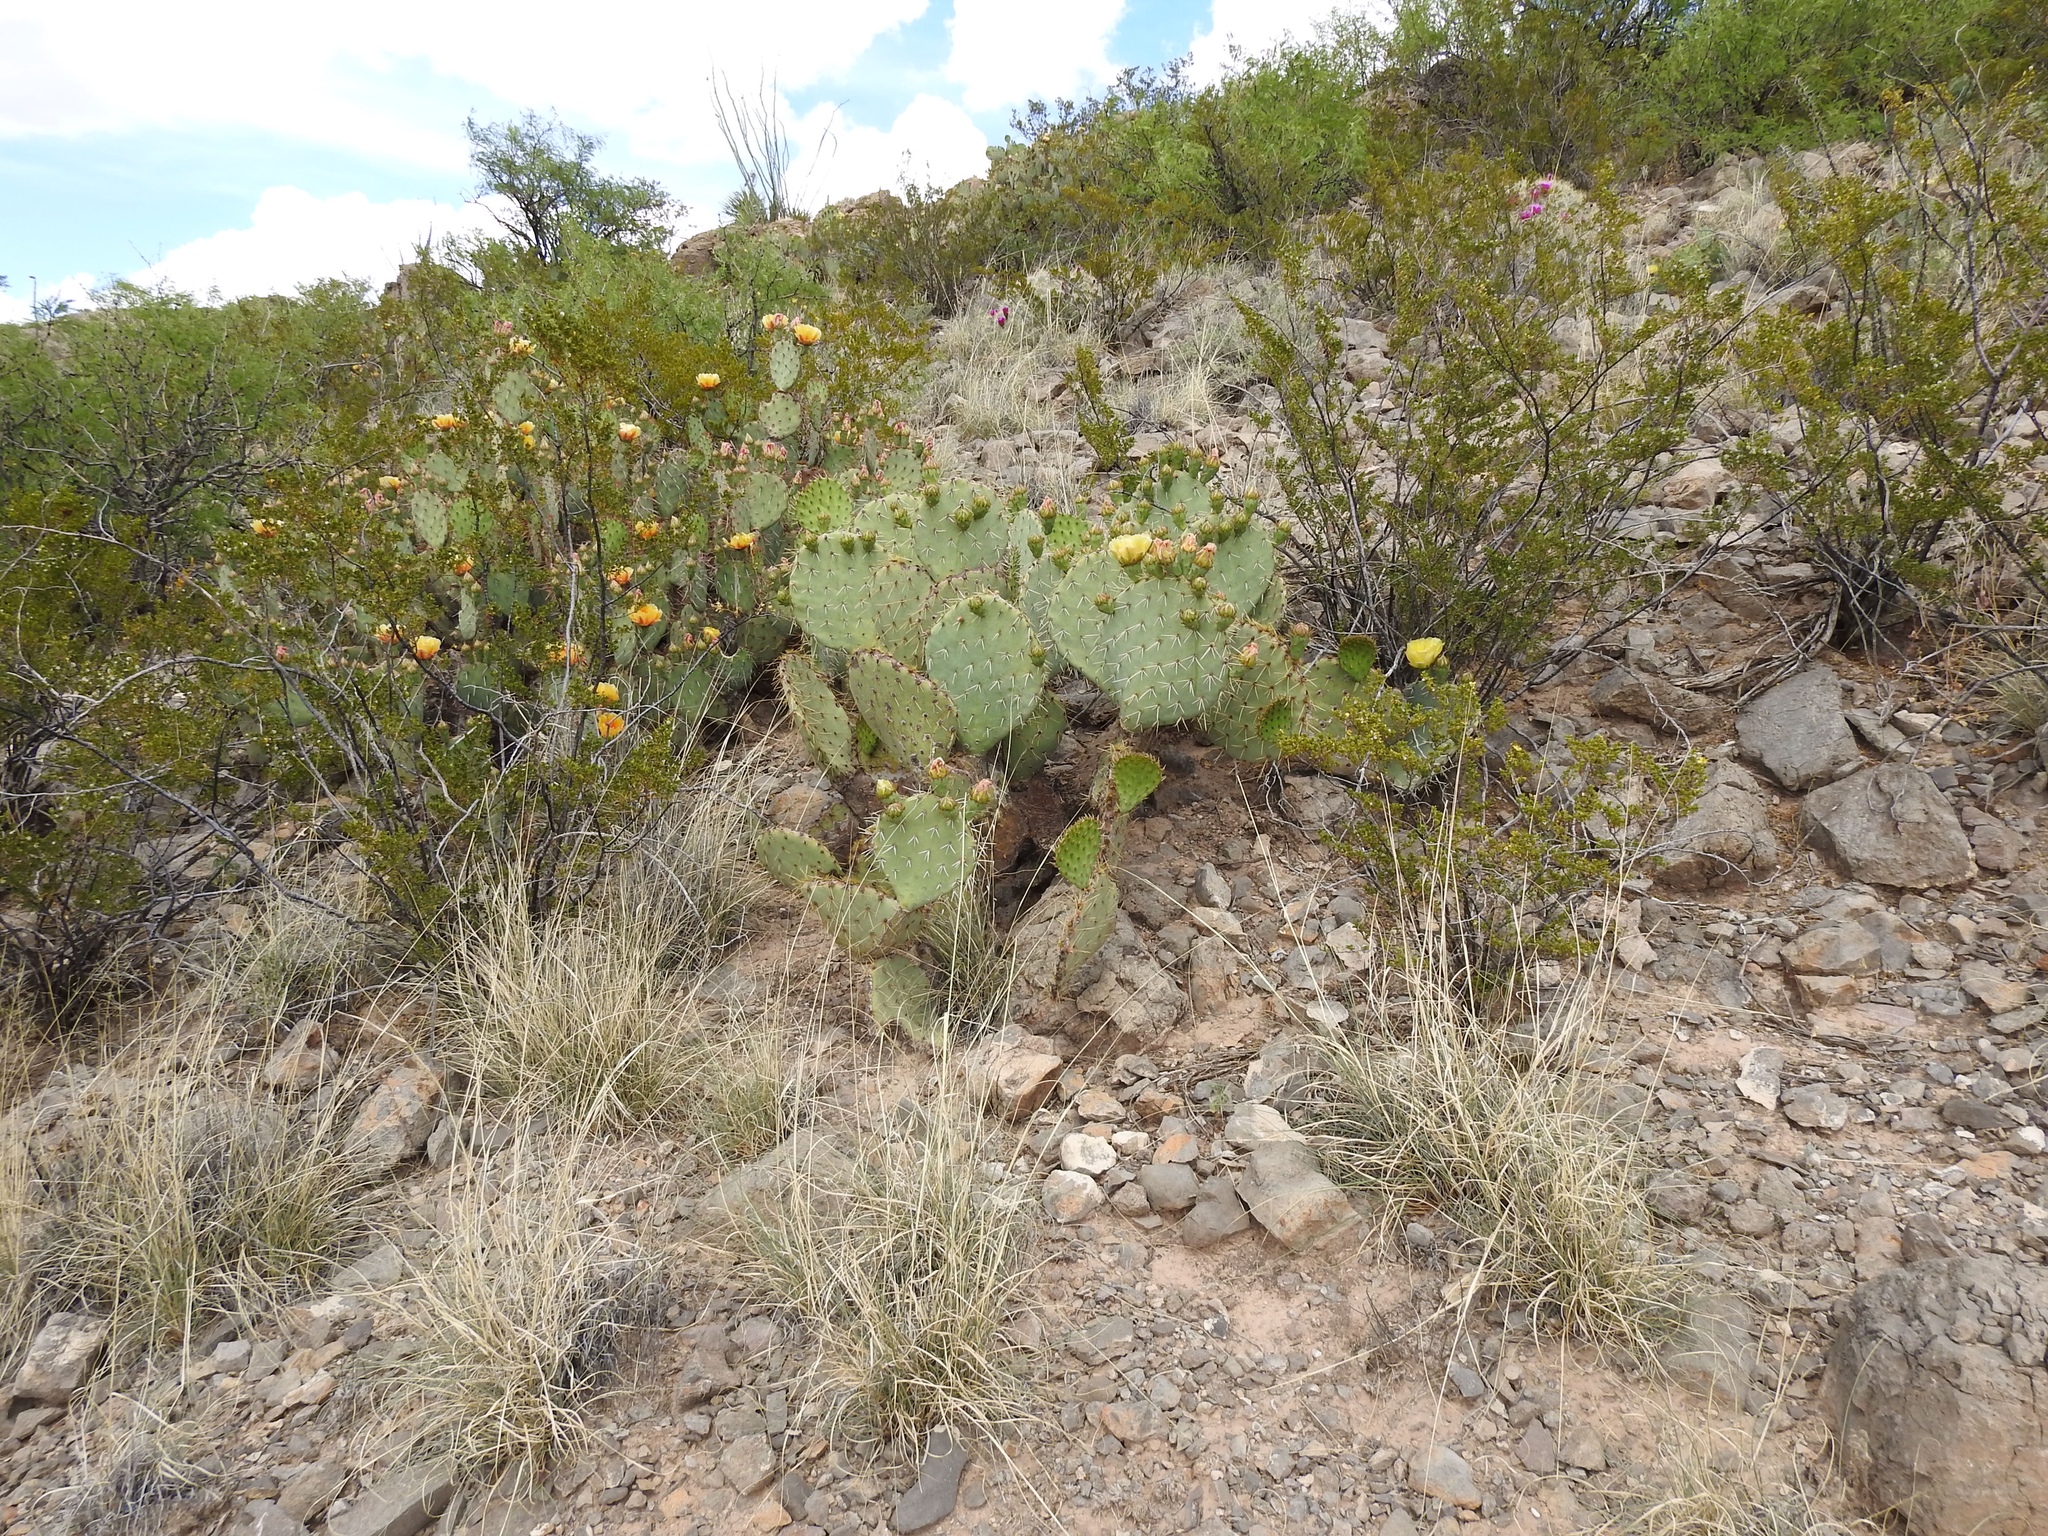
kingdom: Plantae
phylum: Tracheophyta
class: Magnoliopsida
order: Caryophyllales
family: Cactaceae
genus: Opuntia
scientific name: Opuntia orbiculata
